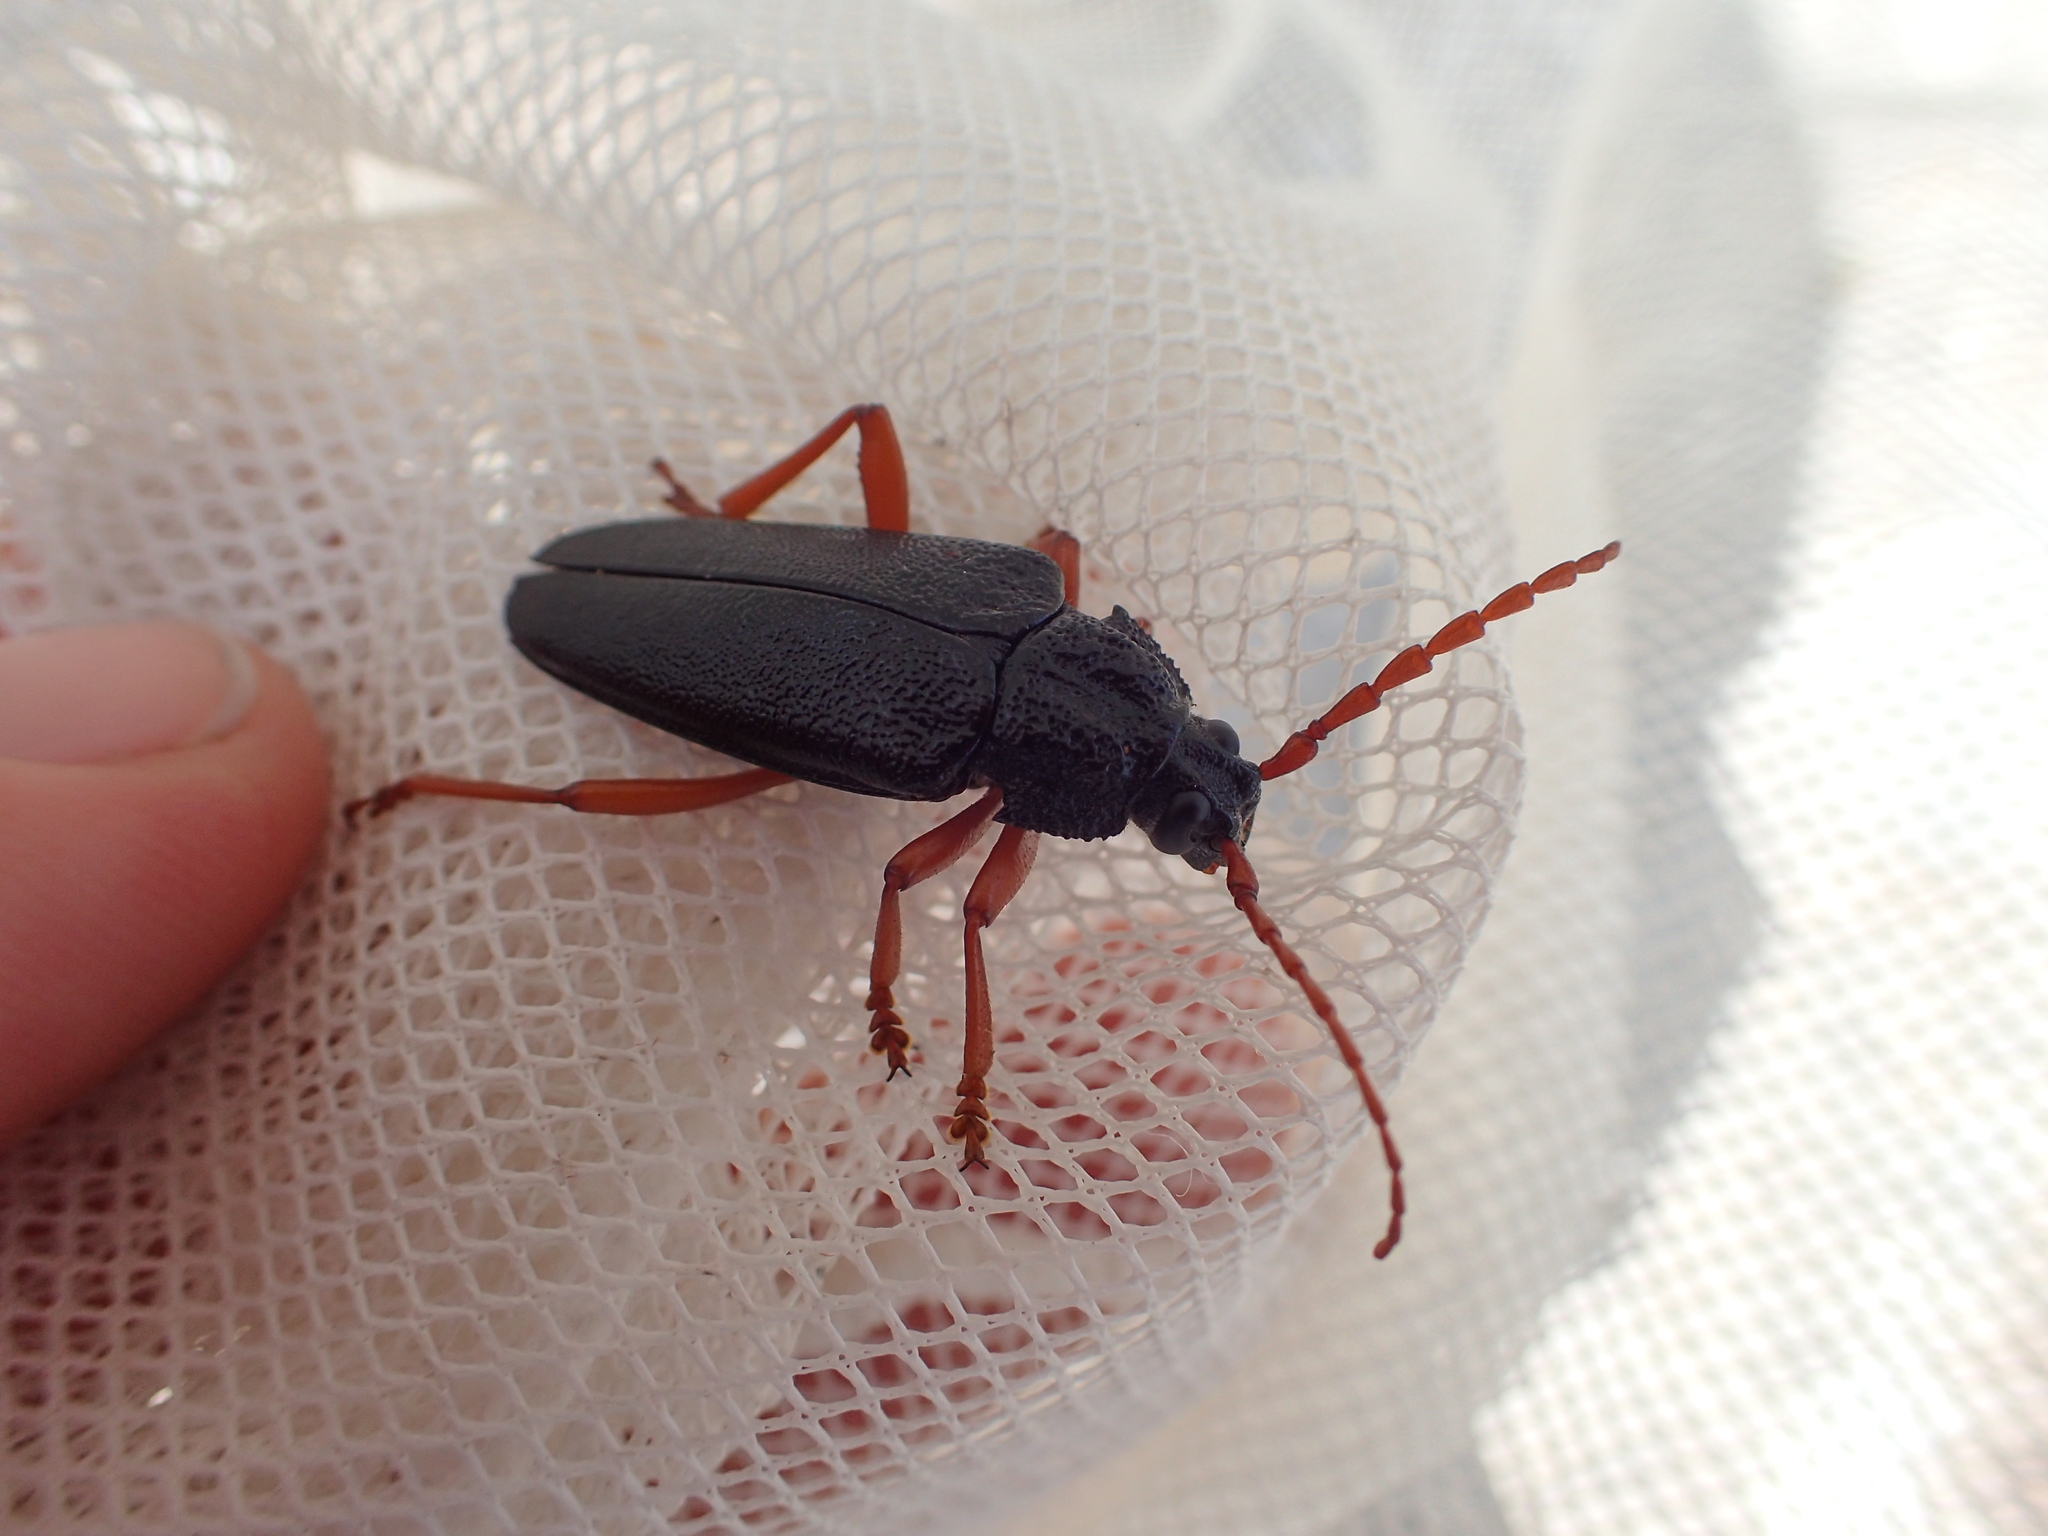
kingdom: Animalia
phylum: Arthropoda
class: Insecta
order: Coleoptera
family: Cerambycidae
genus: Elateropsis
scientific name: Elateropsis scabrosus
